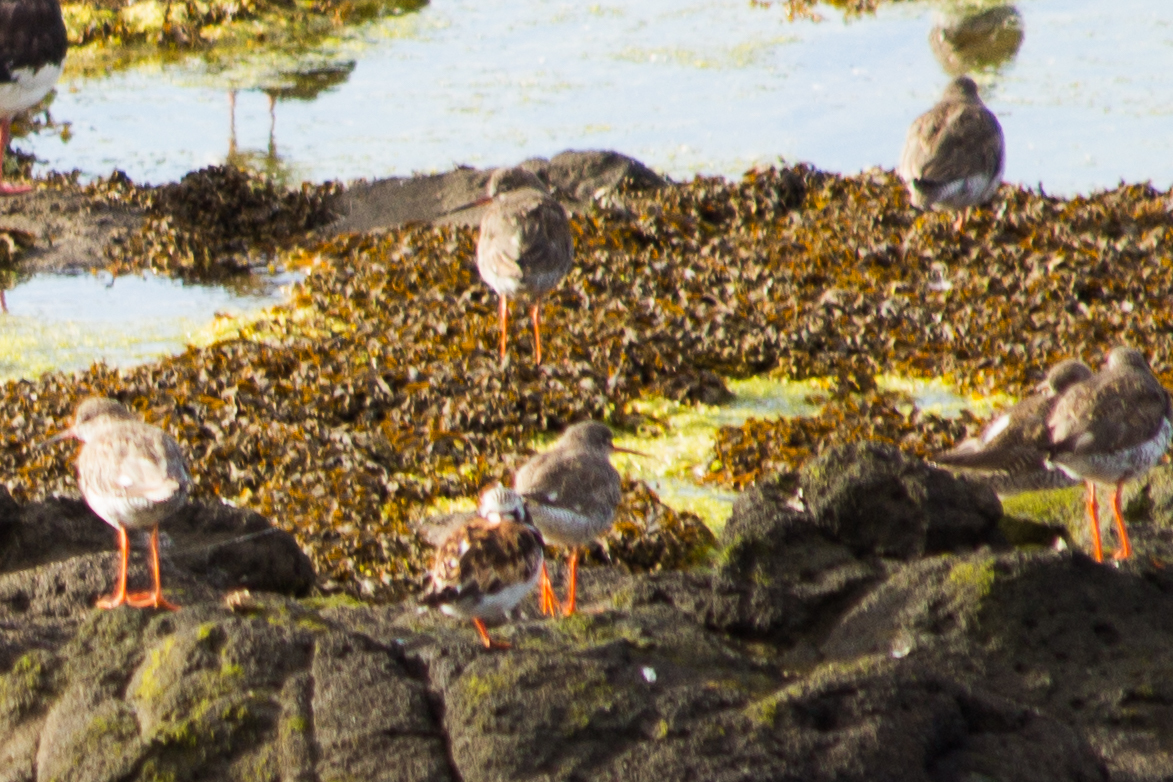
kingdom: Animalia
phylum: Chordata
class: Aves
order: Charadriiformes
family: Scolopacidae
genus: Tringa
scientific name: Tringa totanus
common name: Common redshank
